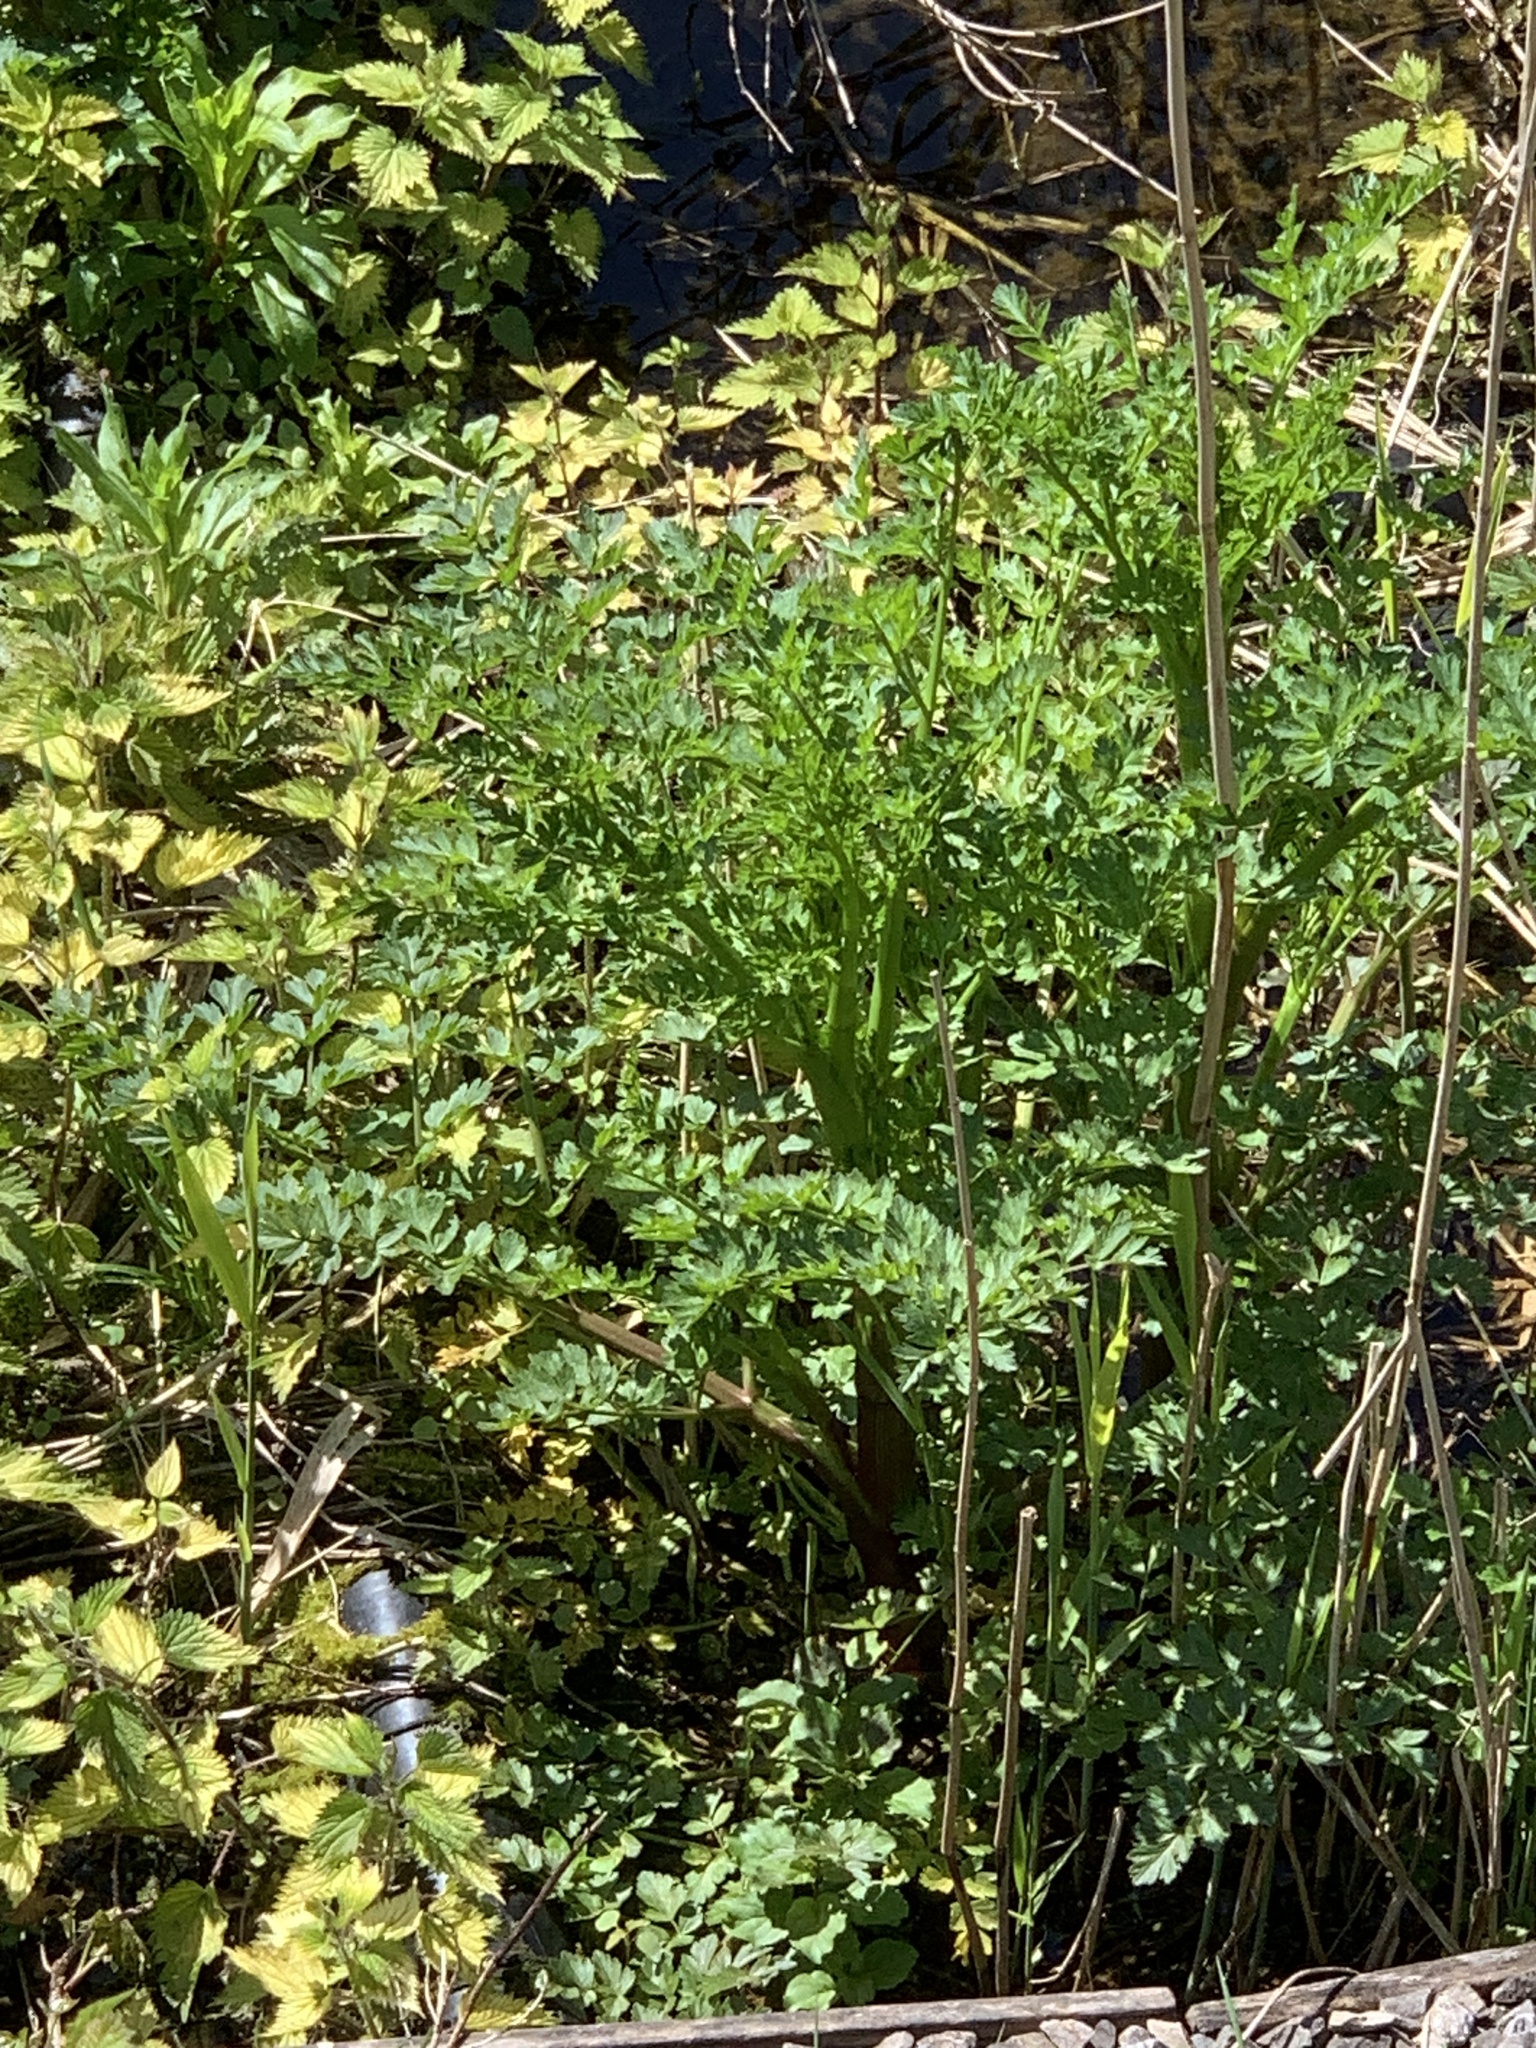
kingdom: Plantae
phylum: Tracheophyta
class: Magnoliopsida
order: Apiales
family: Apiaceae
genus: Oenanthe
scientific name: Oenanthe crocata
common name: Hemlock water-dropwort
